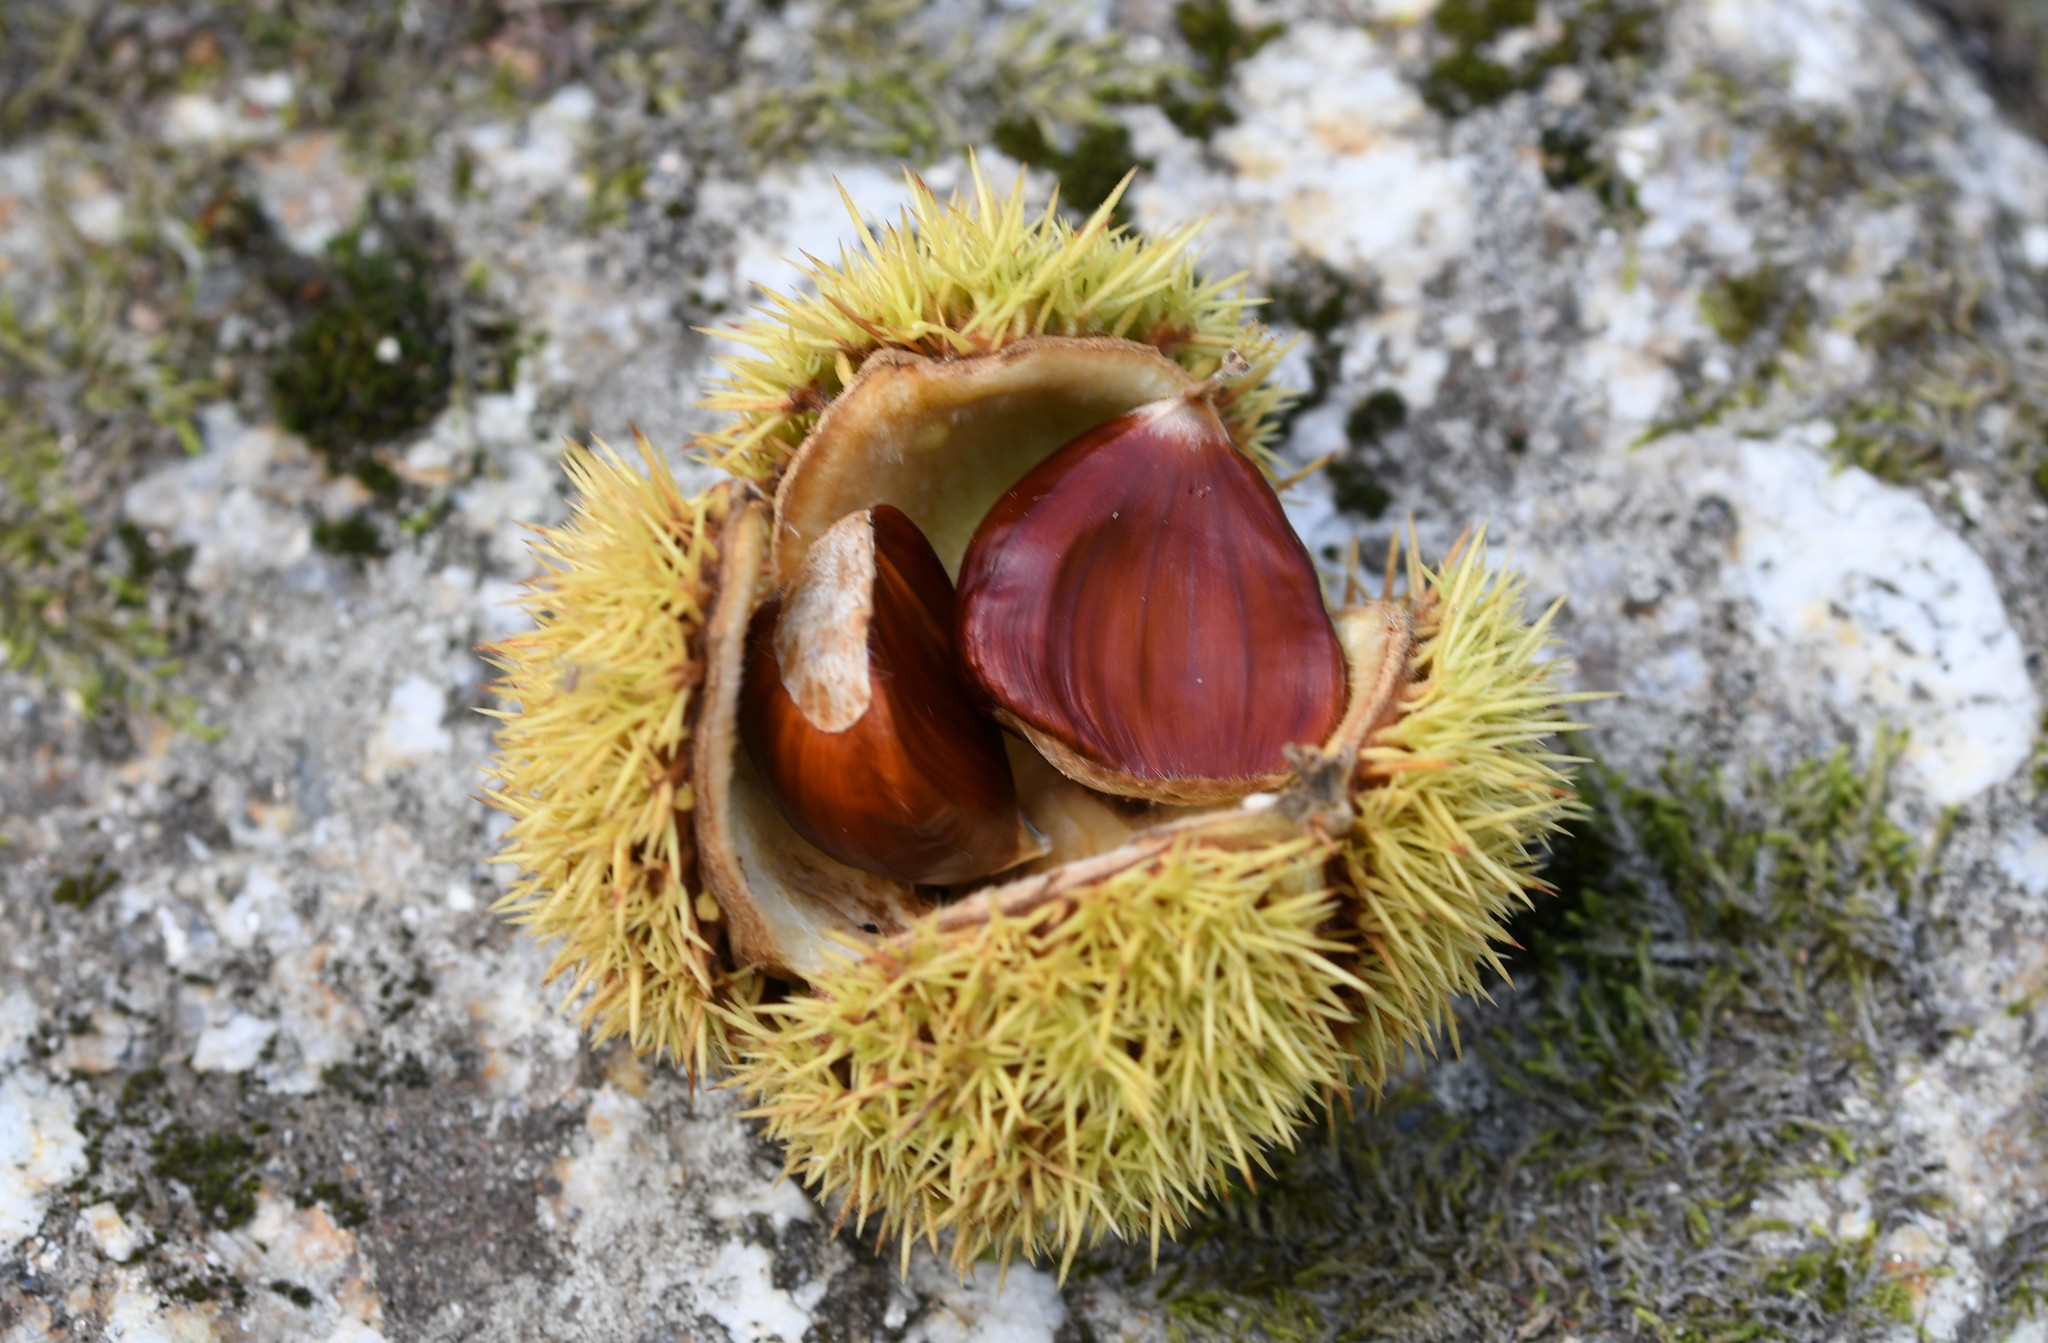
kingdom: Plantae
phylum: Tracheophyta
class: Magnoliopsida
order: Fagales
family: Fagaceae
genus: Castanea
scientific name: Castanea sativa
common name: Sweet chestnut
